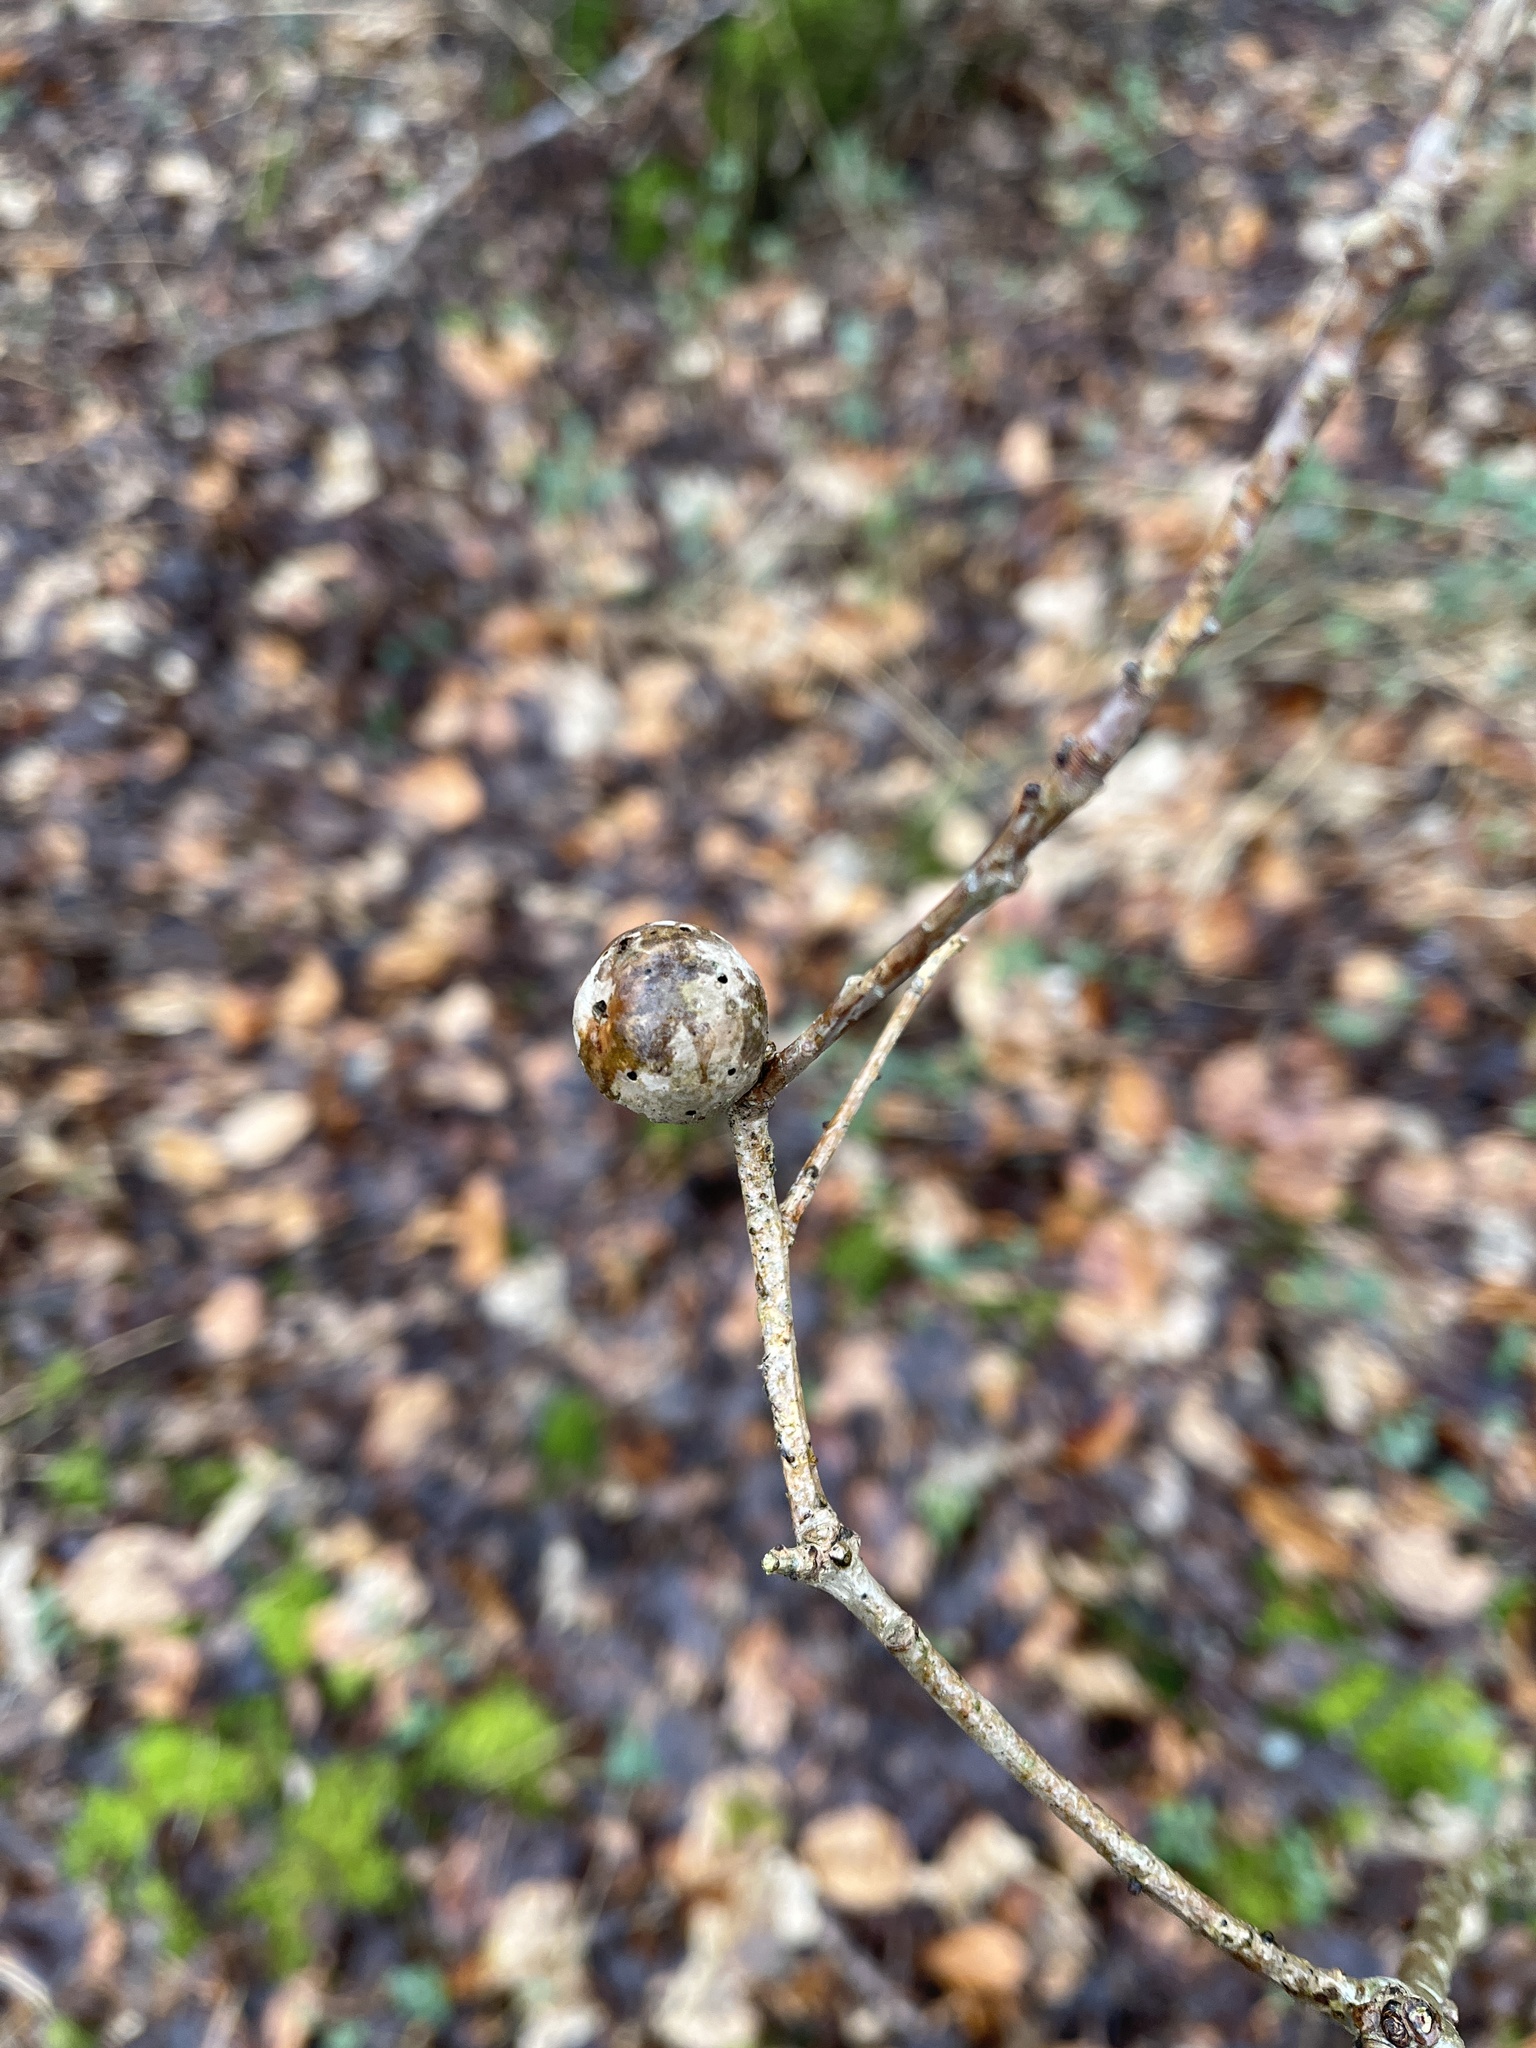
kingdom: Animalia
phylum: Arthropoda
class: Insecta
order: Hymenoptera
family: Cynipidae
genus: Andricus
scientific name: Andricus kollari
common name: Marble gall
